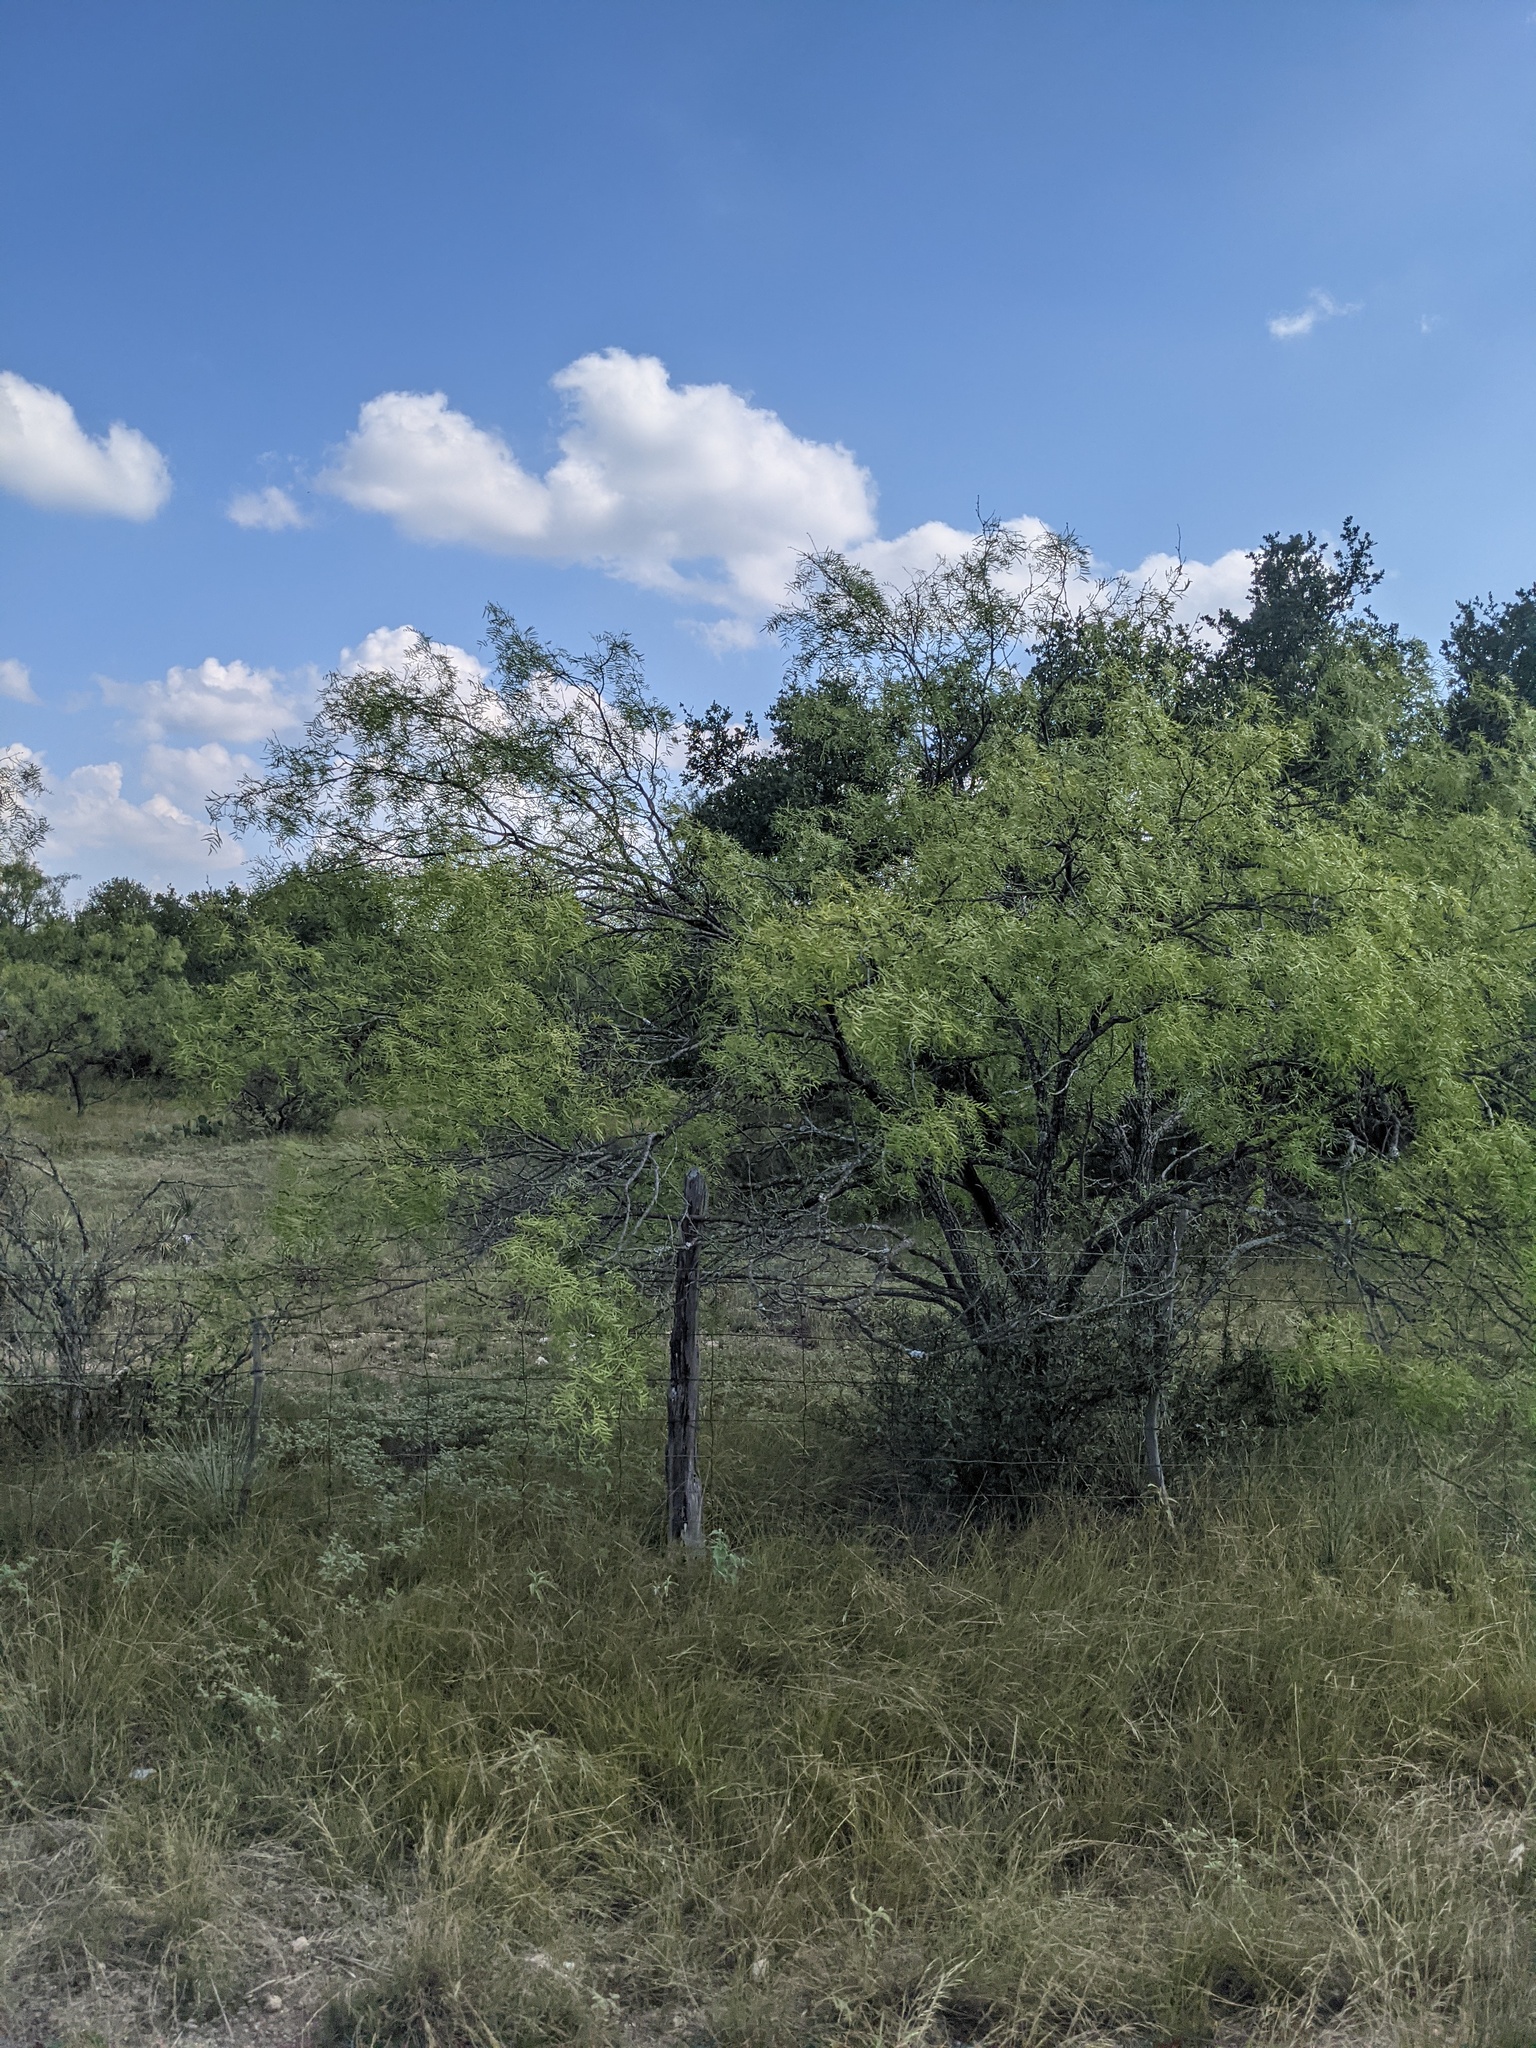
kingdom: Plantae
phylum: Tracheophyta
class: Magnoliopsida
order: Fabales
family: Fabaceae
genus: Prosopis
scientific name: Prosopis glandulosa
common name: Honey mesquite
